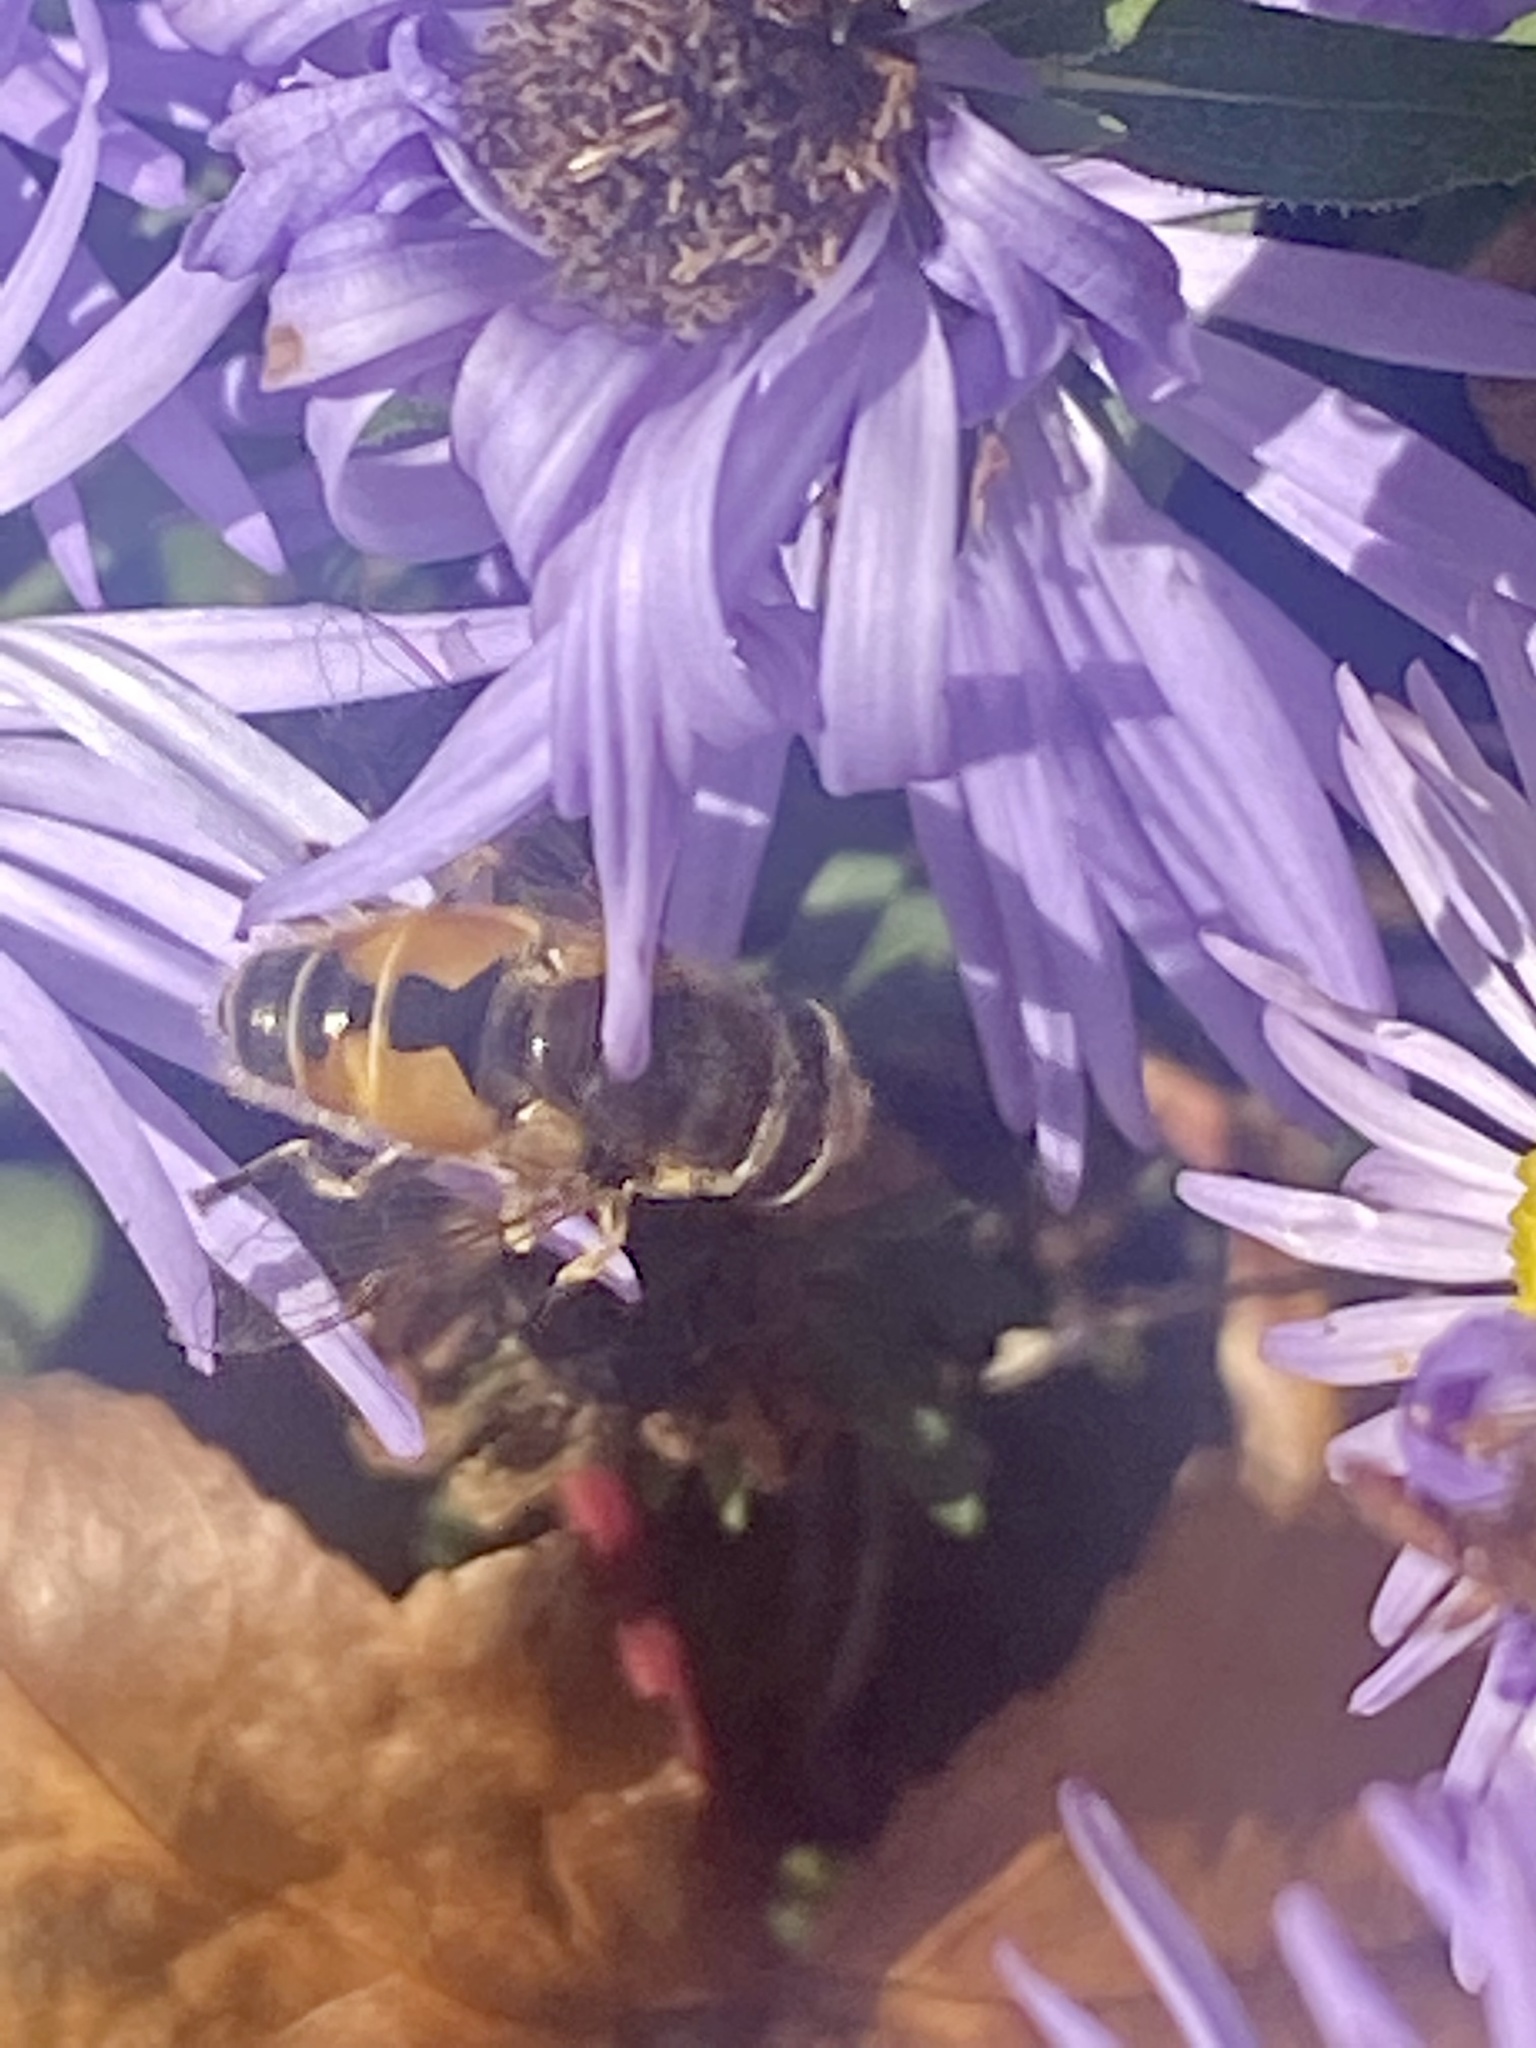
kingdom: Animalia
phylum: Arthropoda
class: Insecta
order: Diptera
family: Syrphidae
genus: Eristalis
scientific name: Eristalis arbustorum
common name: Hover fly
